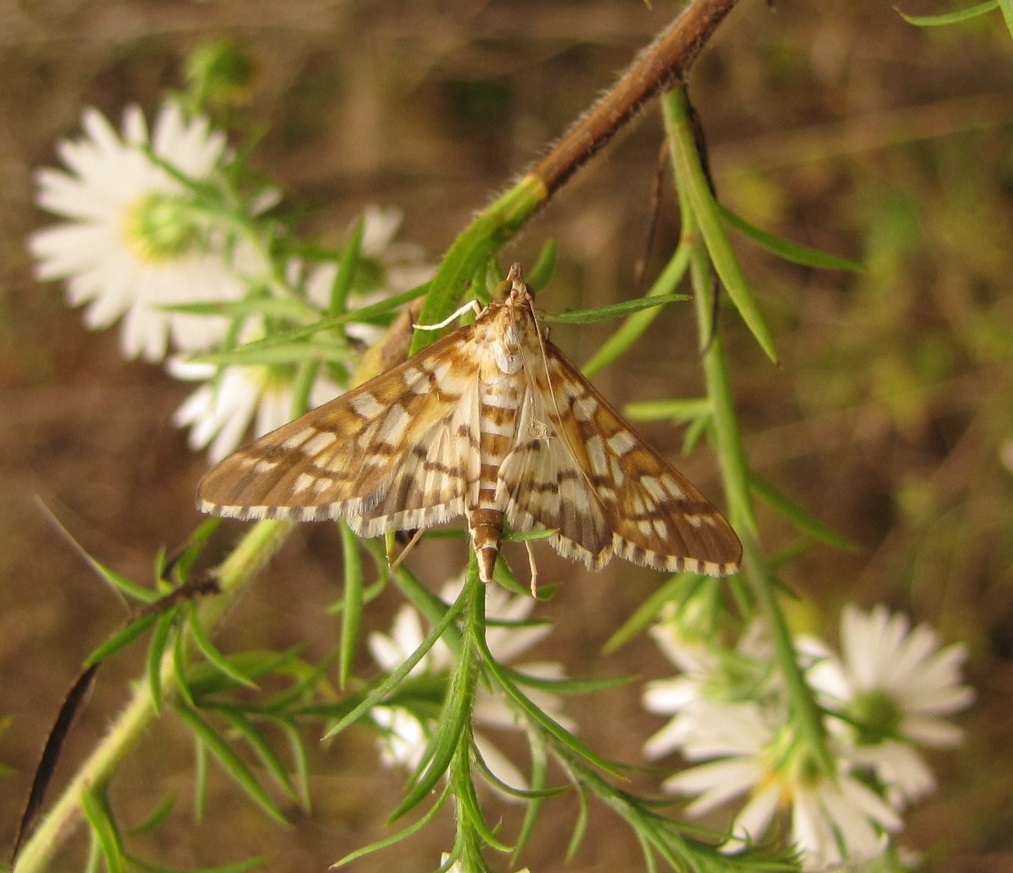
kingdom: Animalia
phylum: Arthropoda
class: Insecta
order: Lepidoptera
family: Crambidae
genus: Epipagis
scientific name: Epipagis fenestralis
